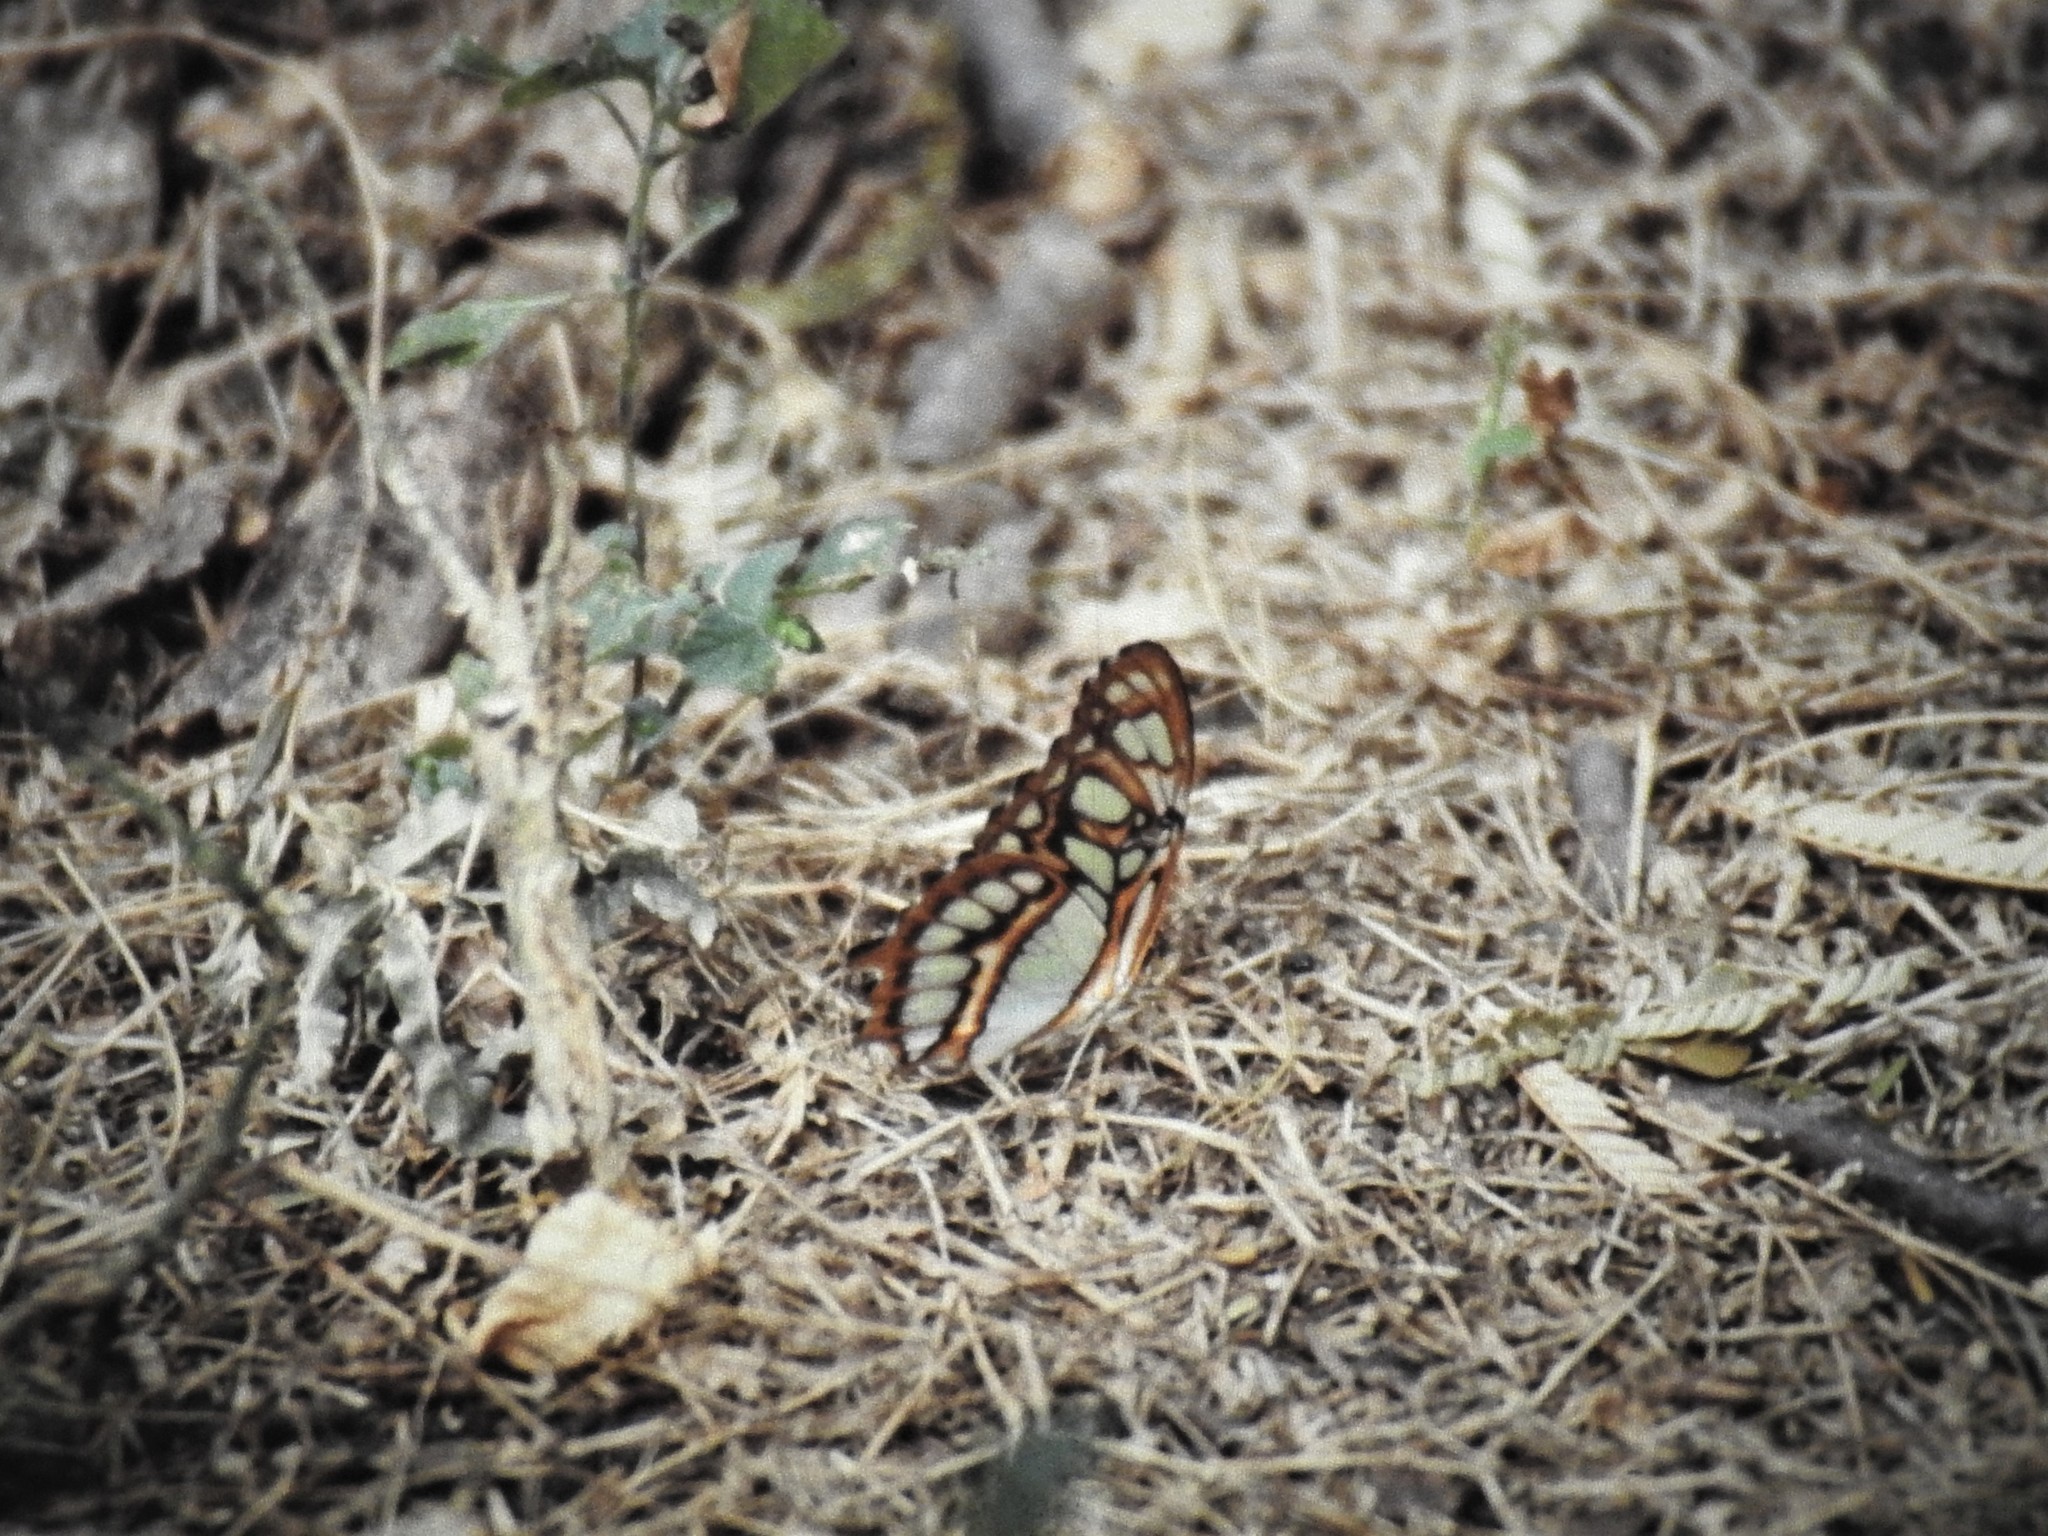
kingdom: Animalia
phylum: Arthropoda
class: Insecta
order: Lepidoptera
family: Nymphalidae
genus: Siproeta
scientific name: Siproeta stelenes
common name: Malachite
